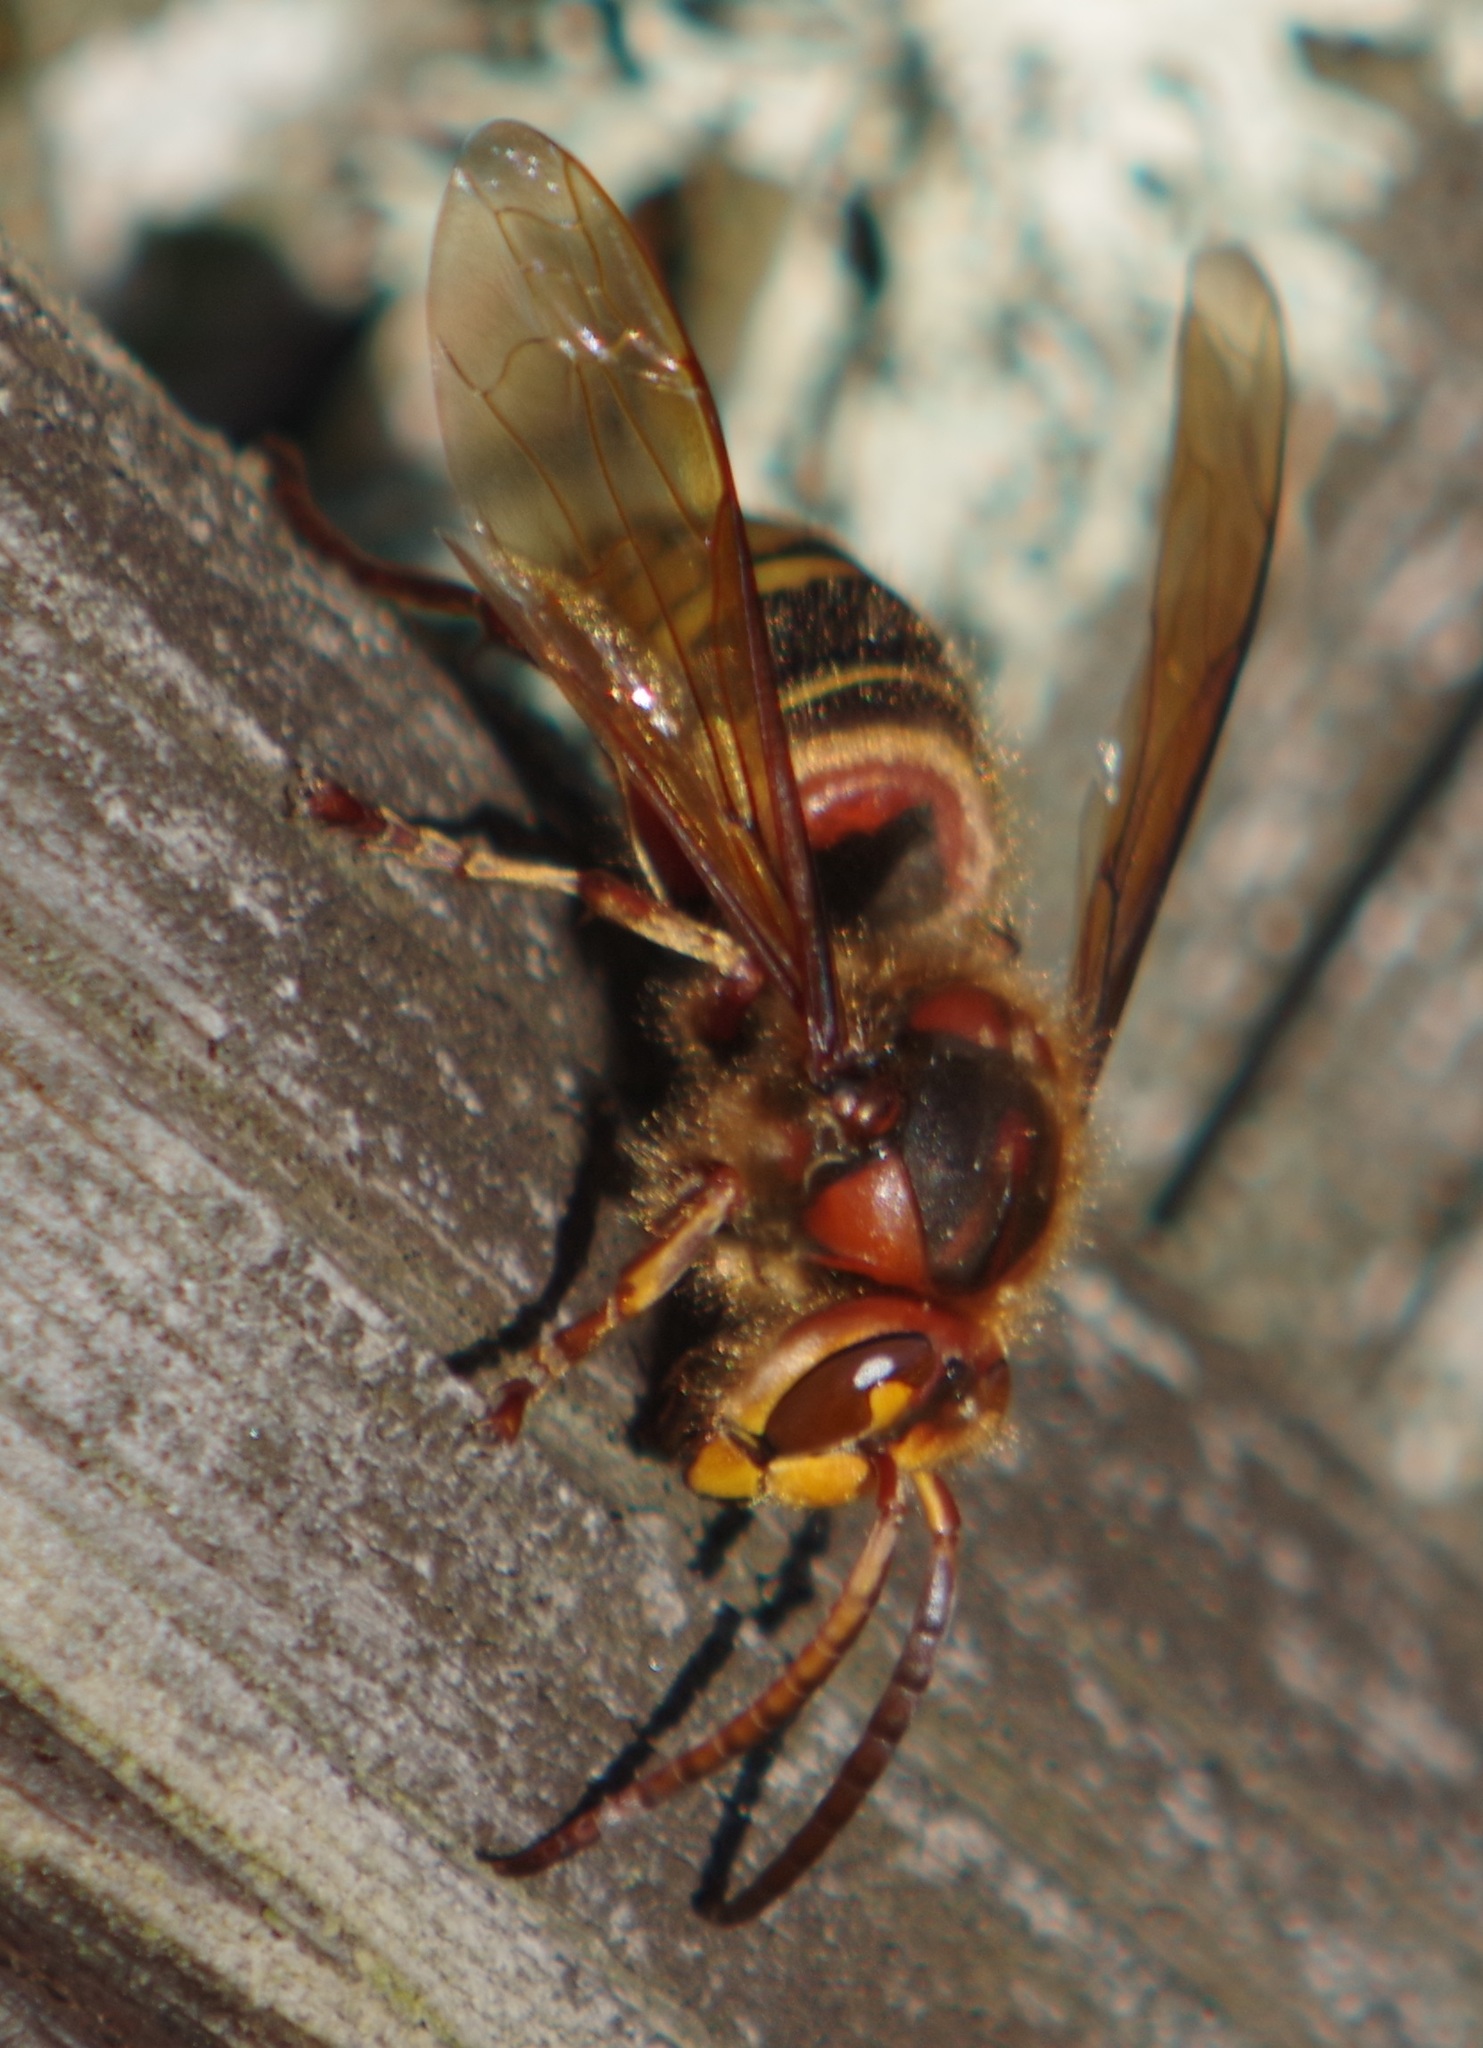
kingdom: Animalia
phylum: Arthropoda
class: Insecta
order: Hymenoptera
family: Vespidae
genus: Vespa
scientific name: Vespa crabro
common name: Hornet
